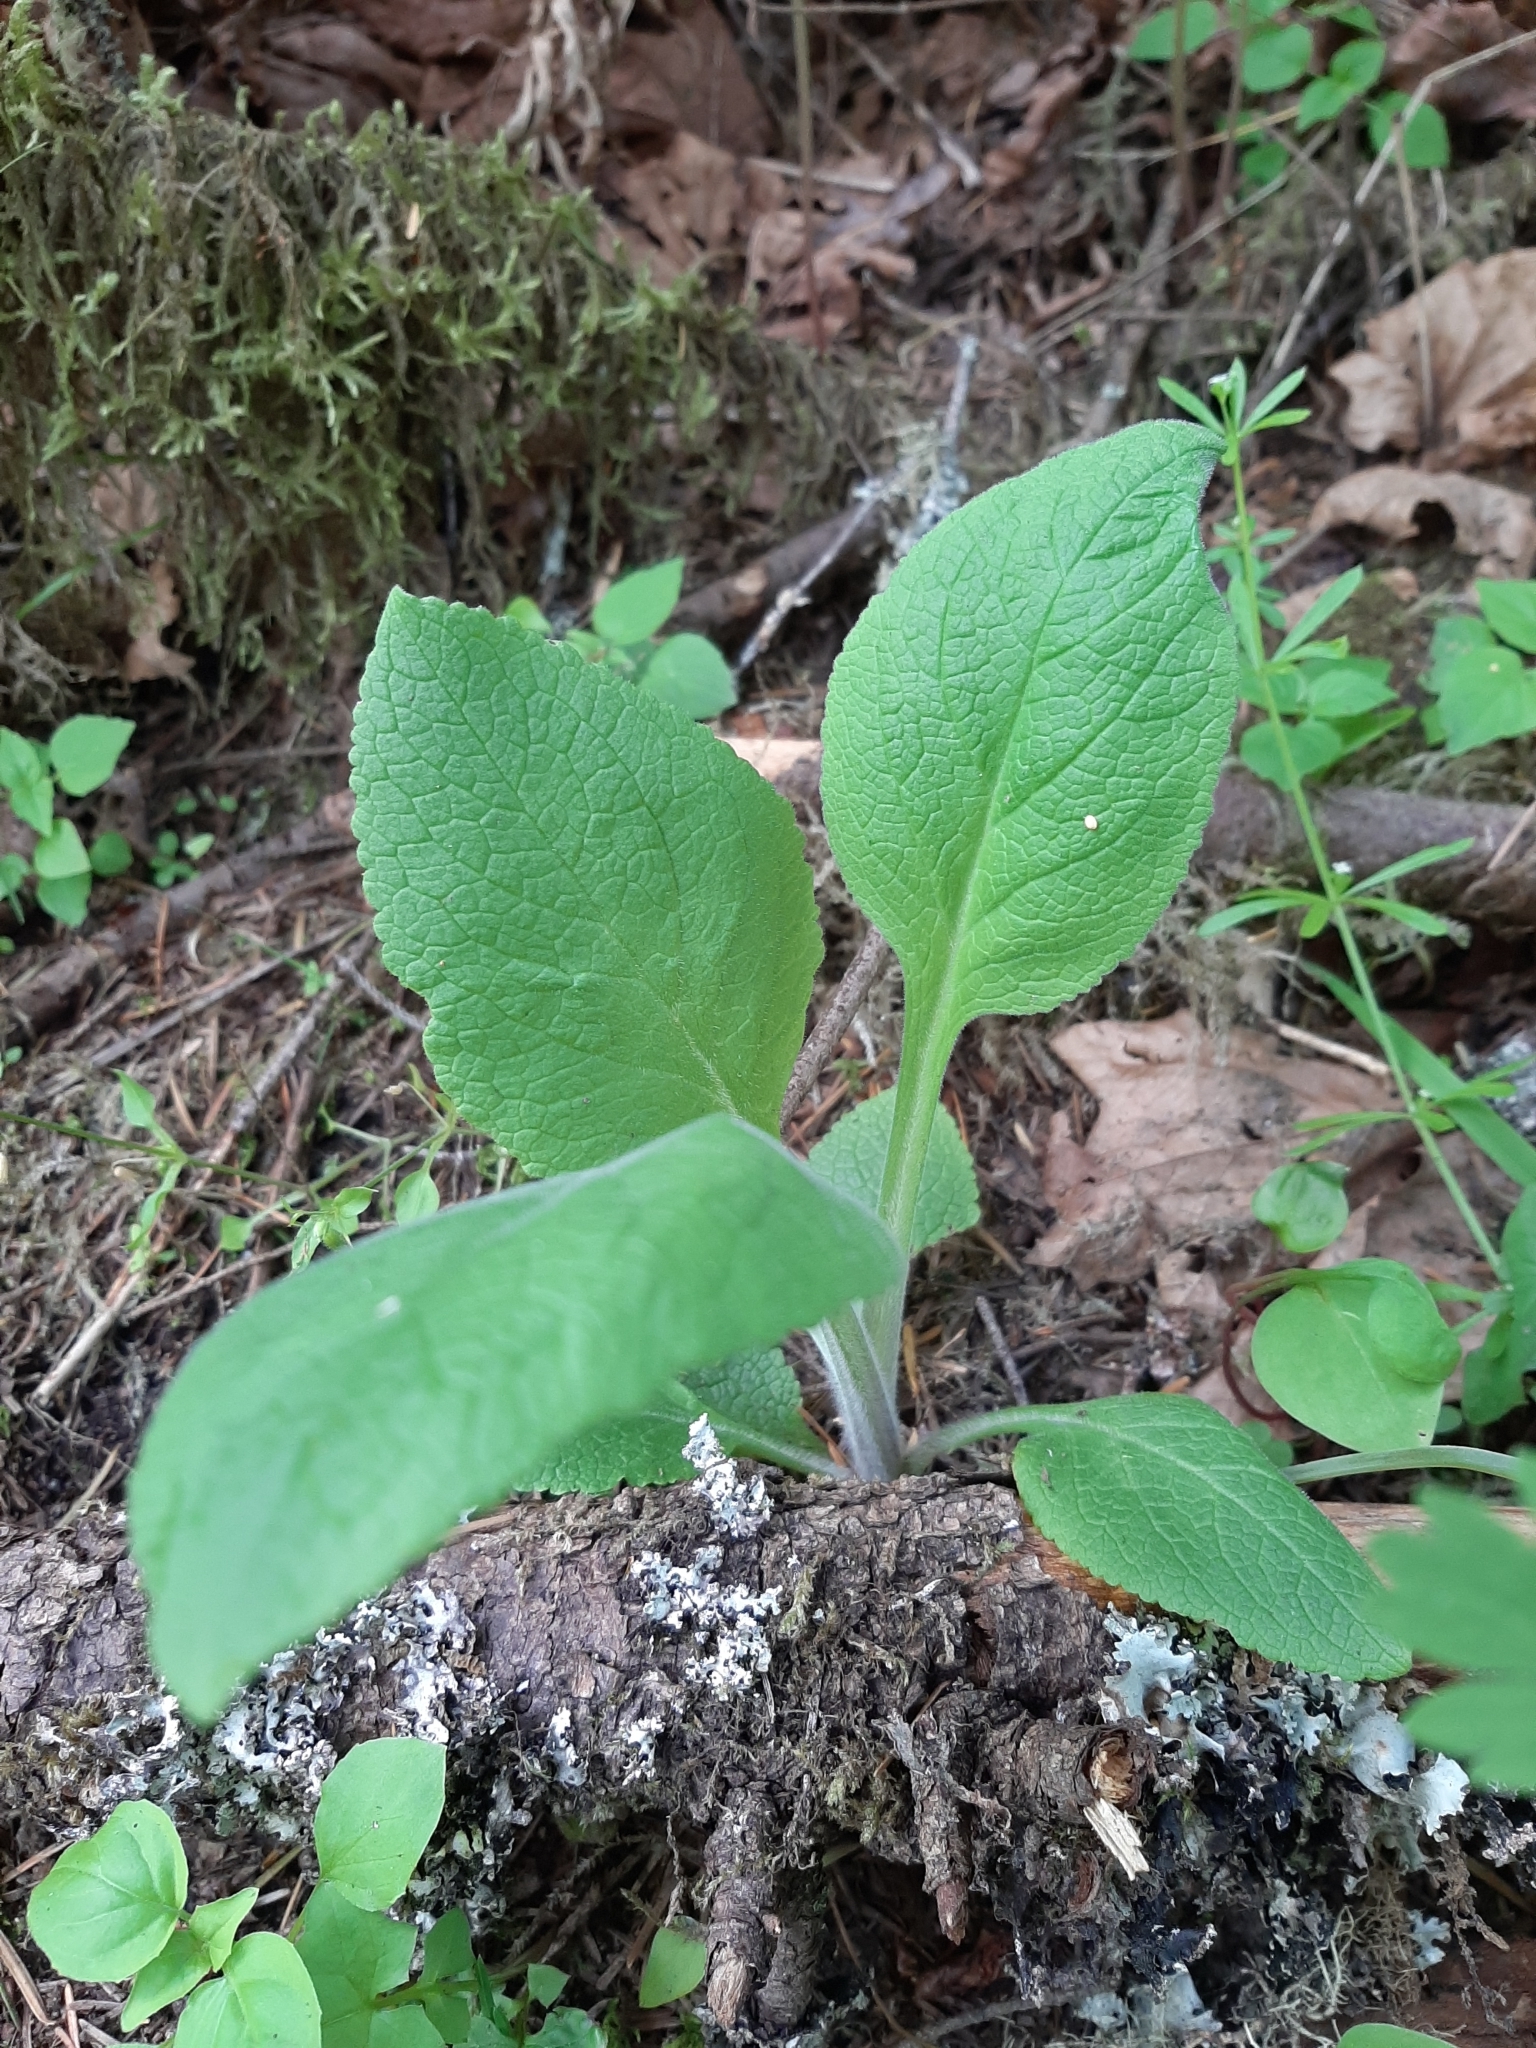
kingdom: Plantae
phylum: Tracheophyta
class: Magnoliopsida
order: Lamiales
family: Plantaginaceae
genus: Digitalis
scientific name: Digitalis purpurea
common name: Foxglove
